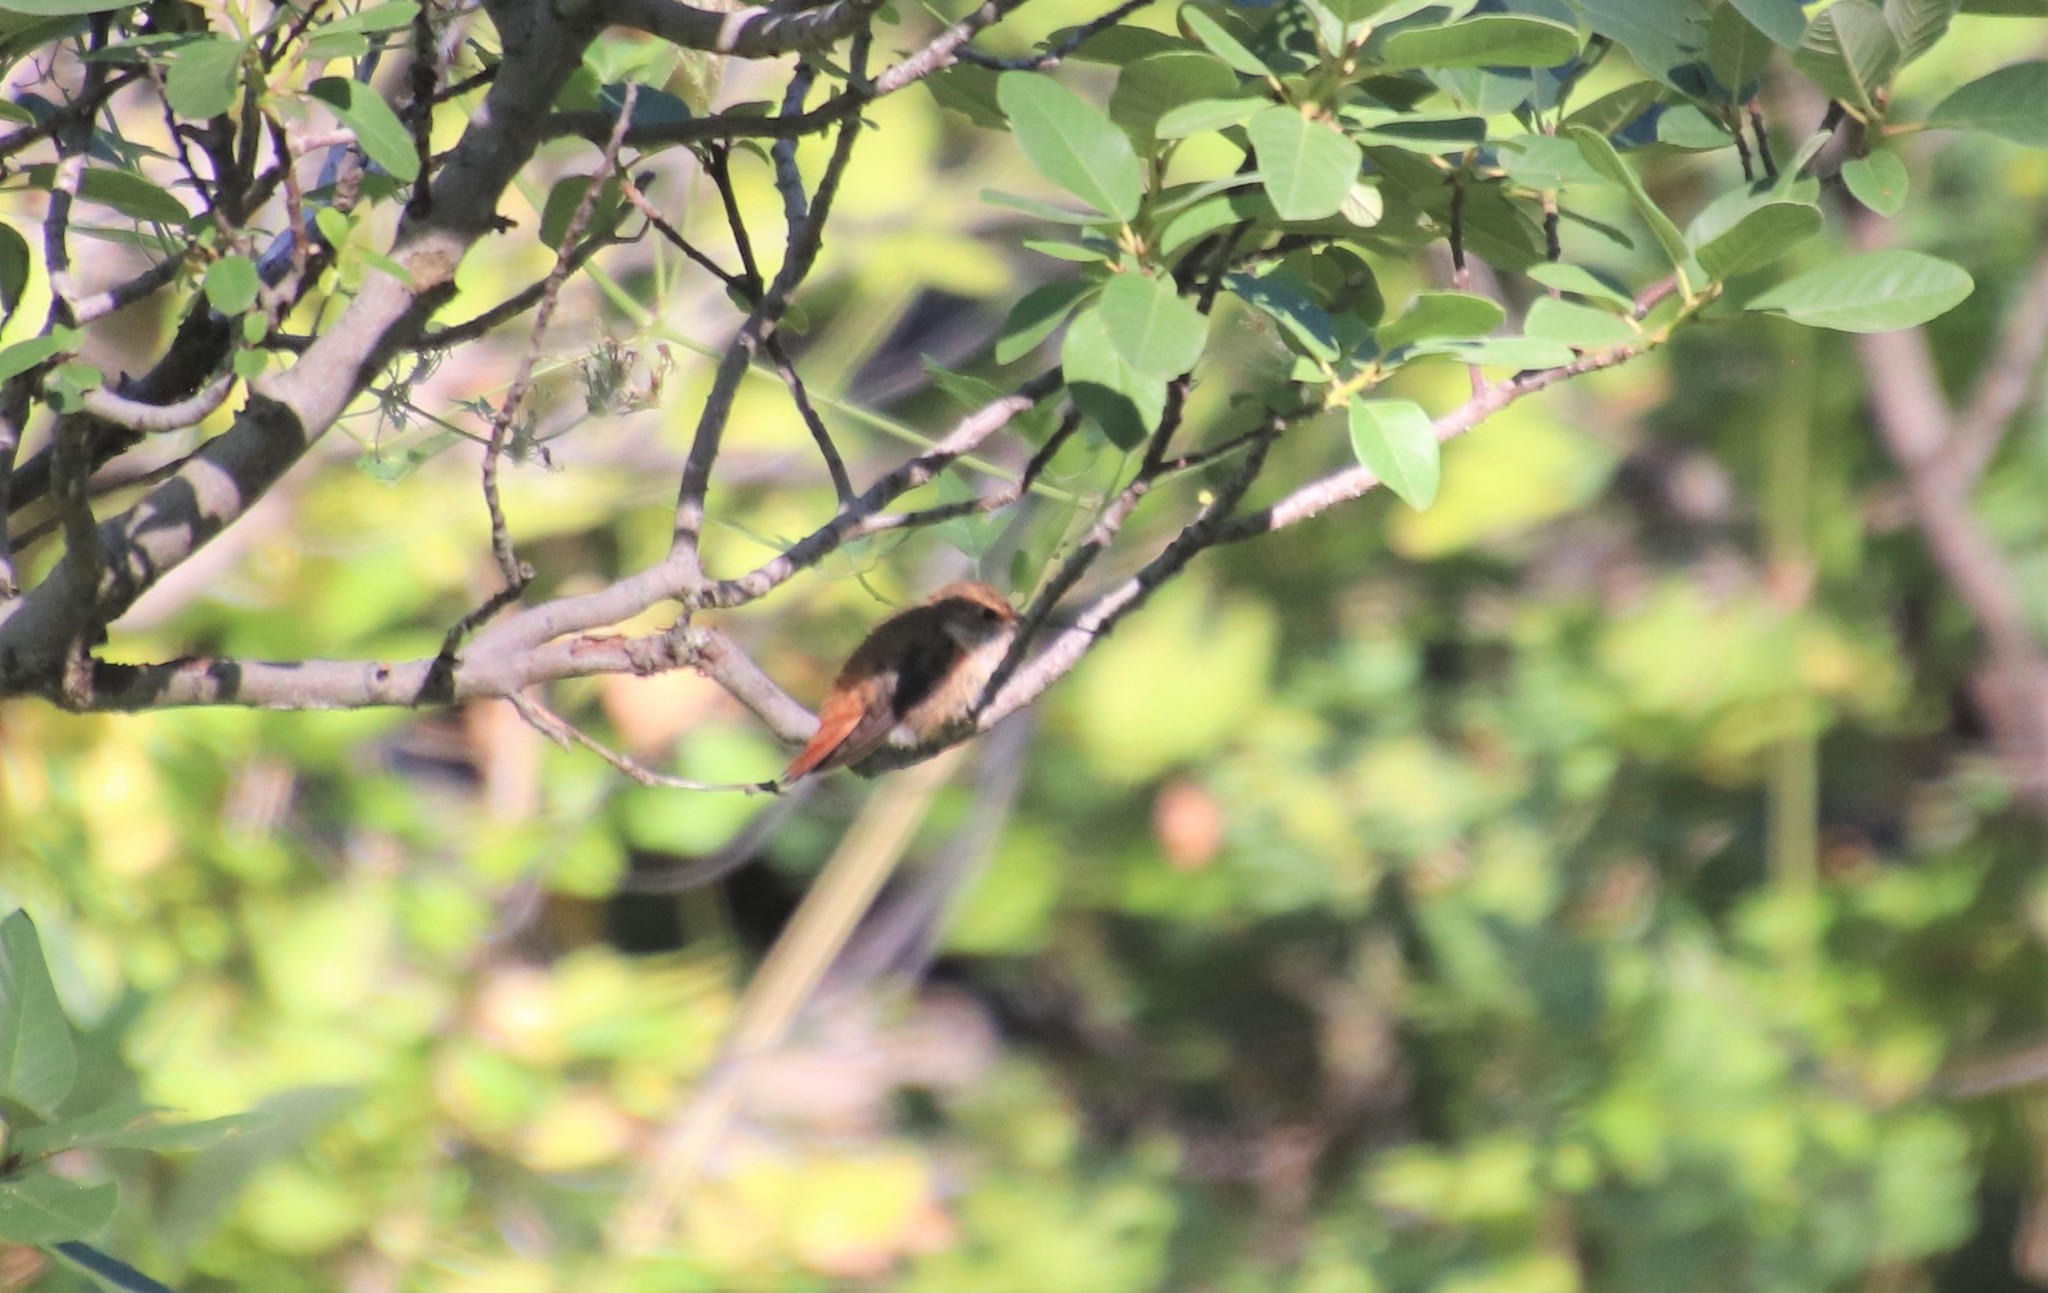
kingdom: Animalia
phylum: Chordata
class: Aves
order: Apodiformes
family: Trochilidae
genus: Selasphorus
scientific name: Selasphorus
